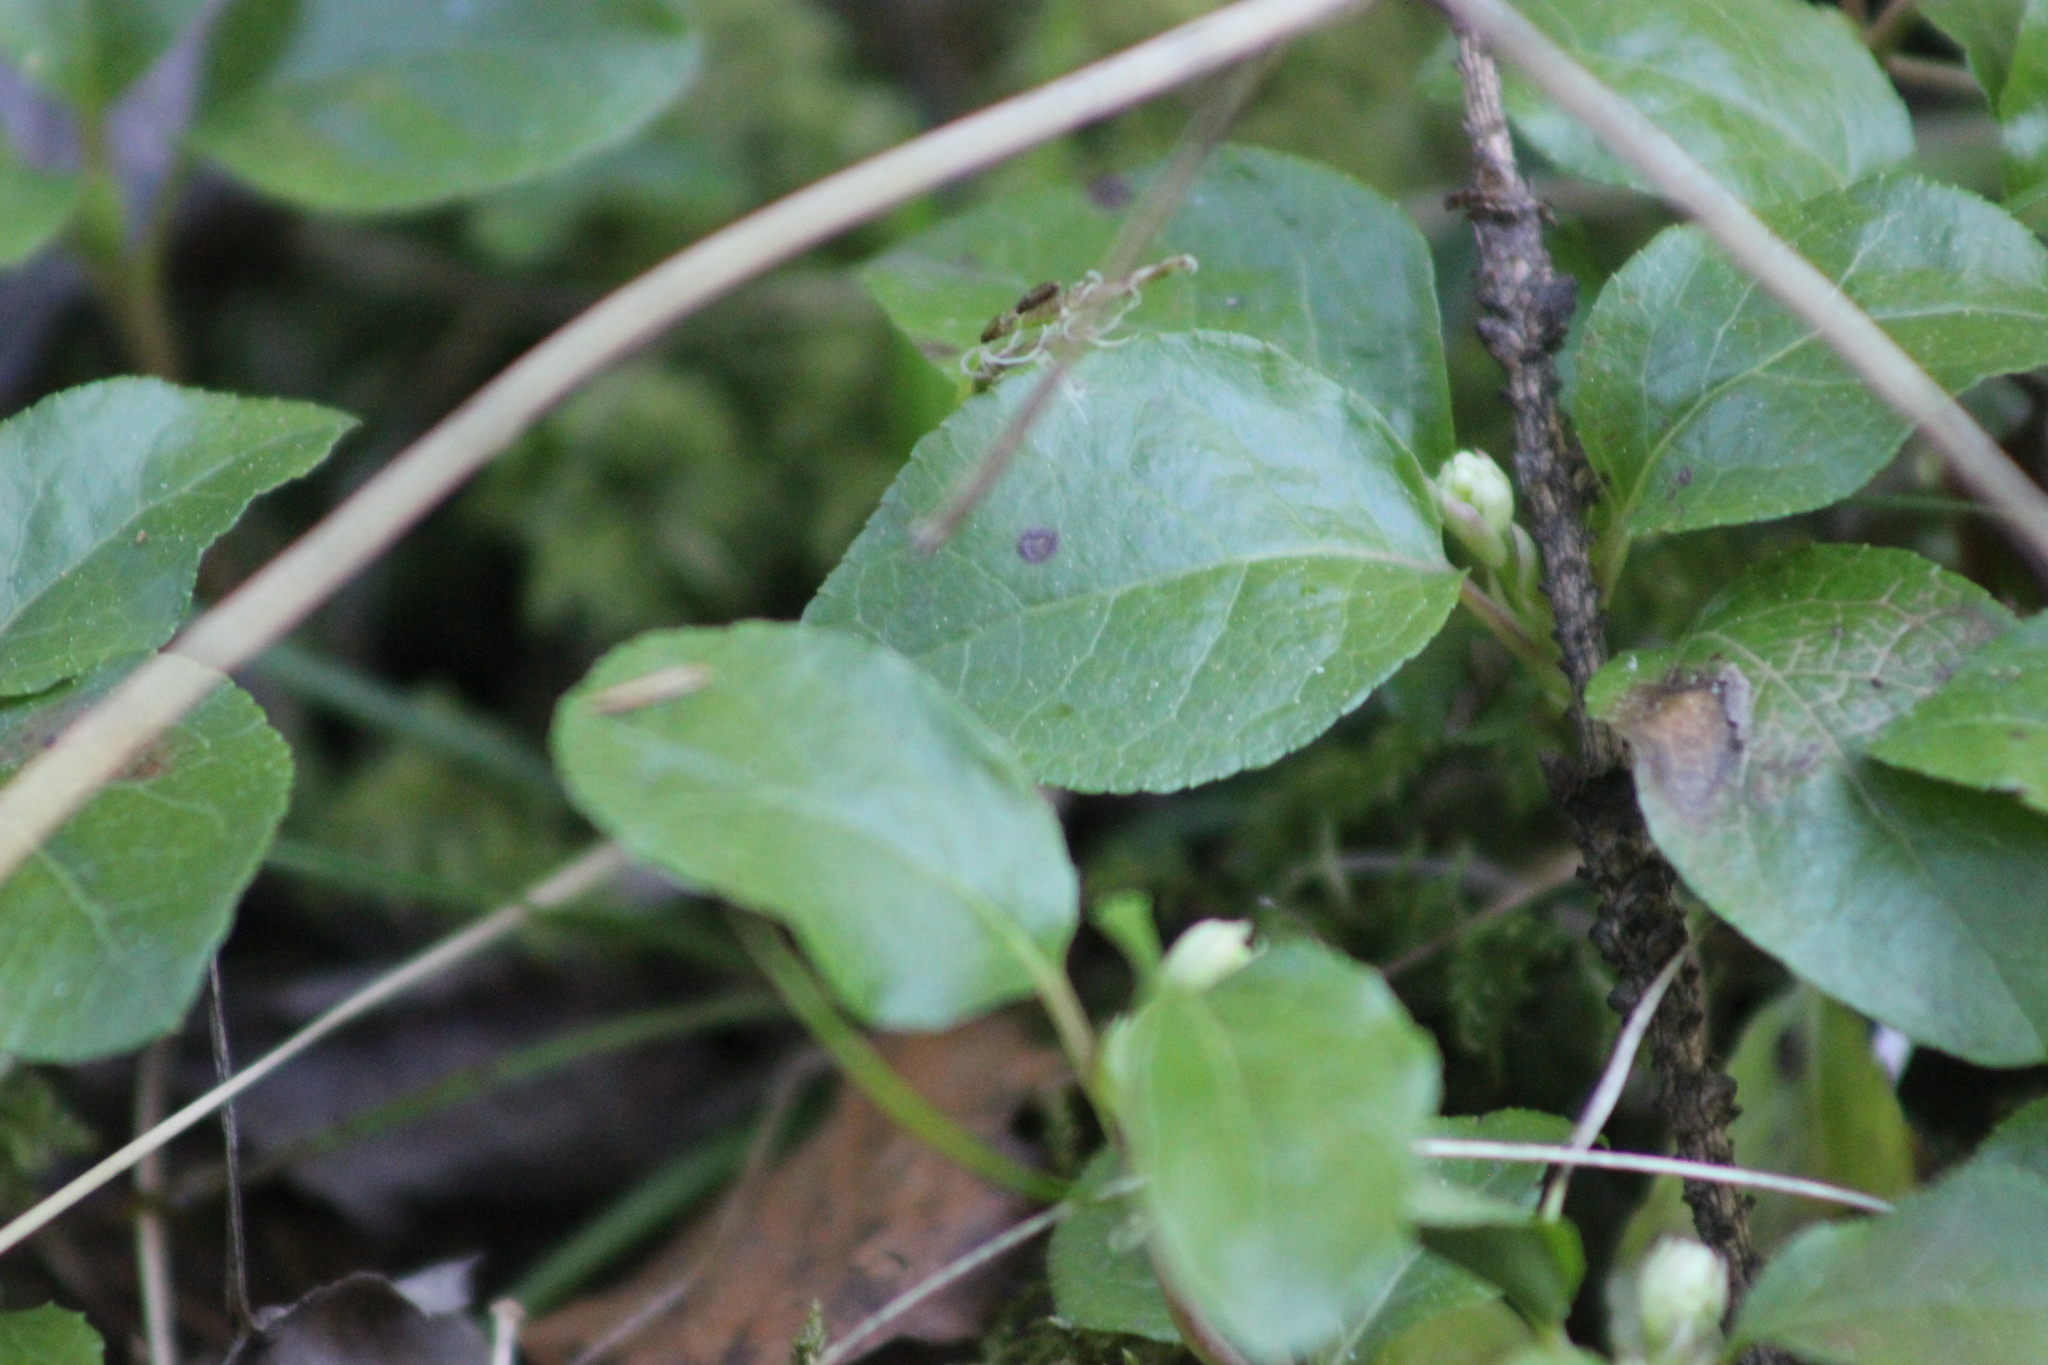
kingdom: Plantae
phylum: Tracheophyta
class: Magnoliopsida
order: Ericales
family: Ericaceae
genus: Orthilia
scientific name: Orthilia secunda
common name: One-sided orthilia
